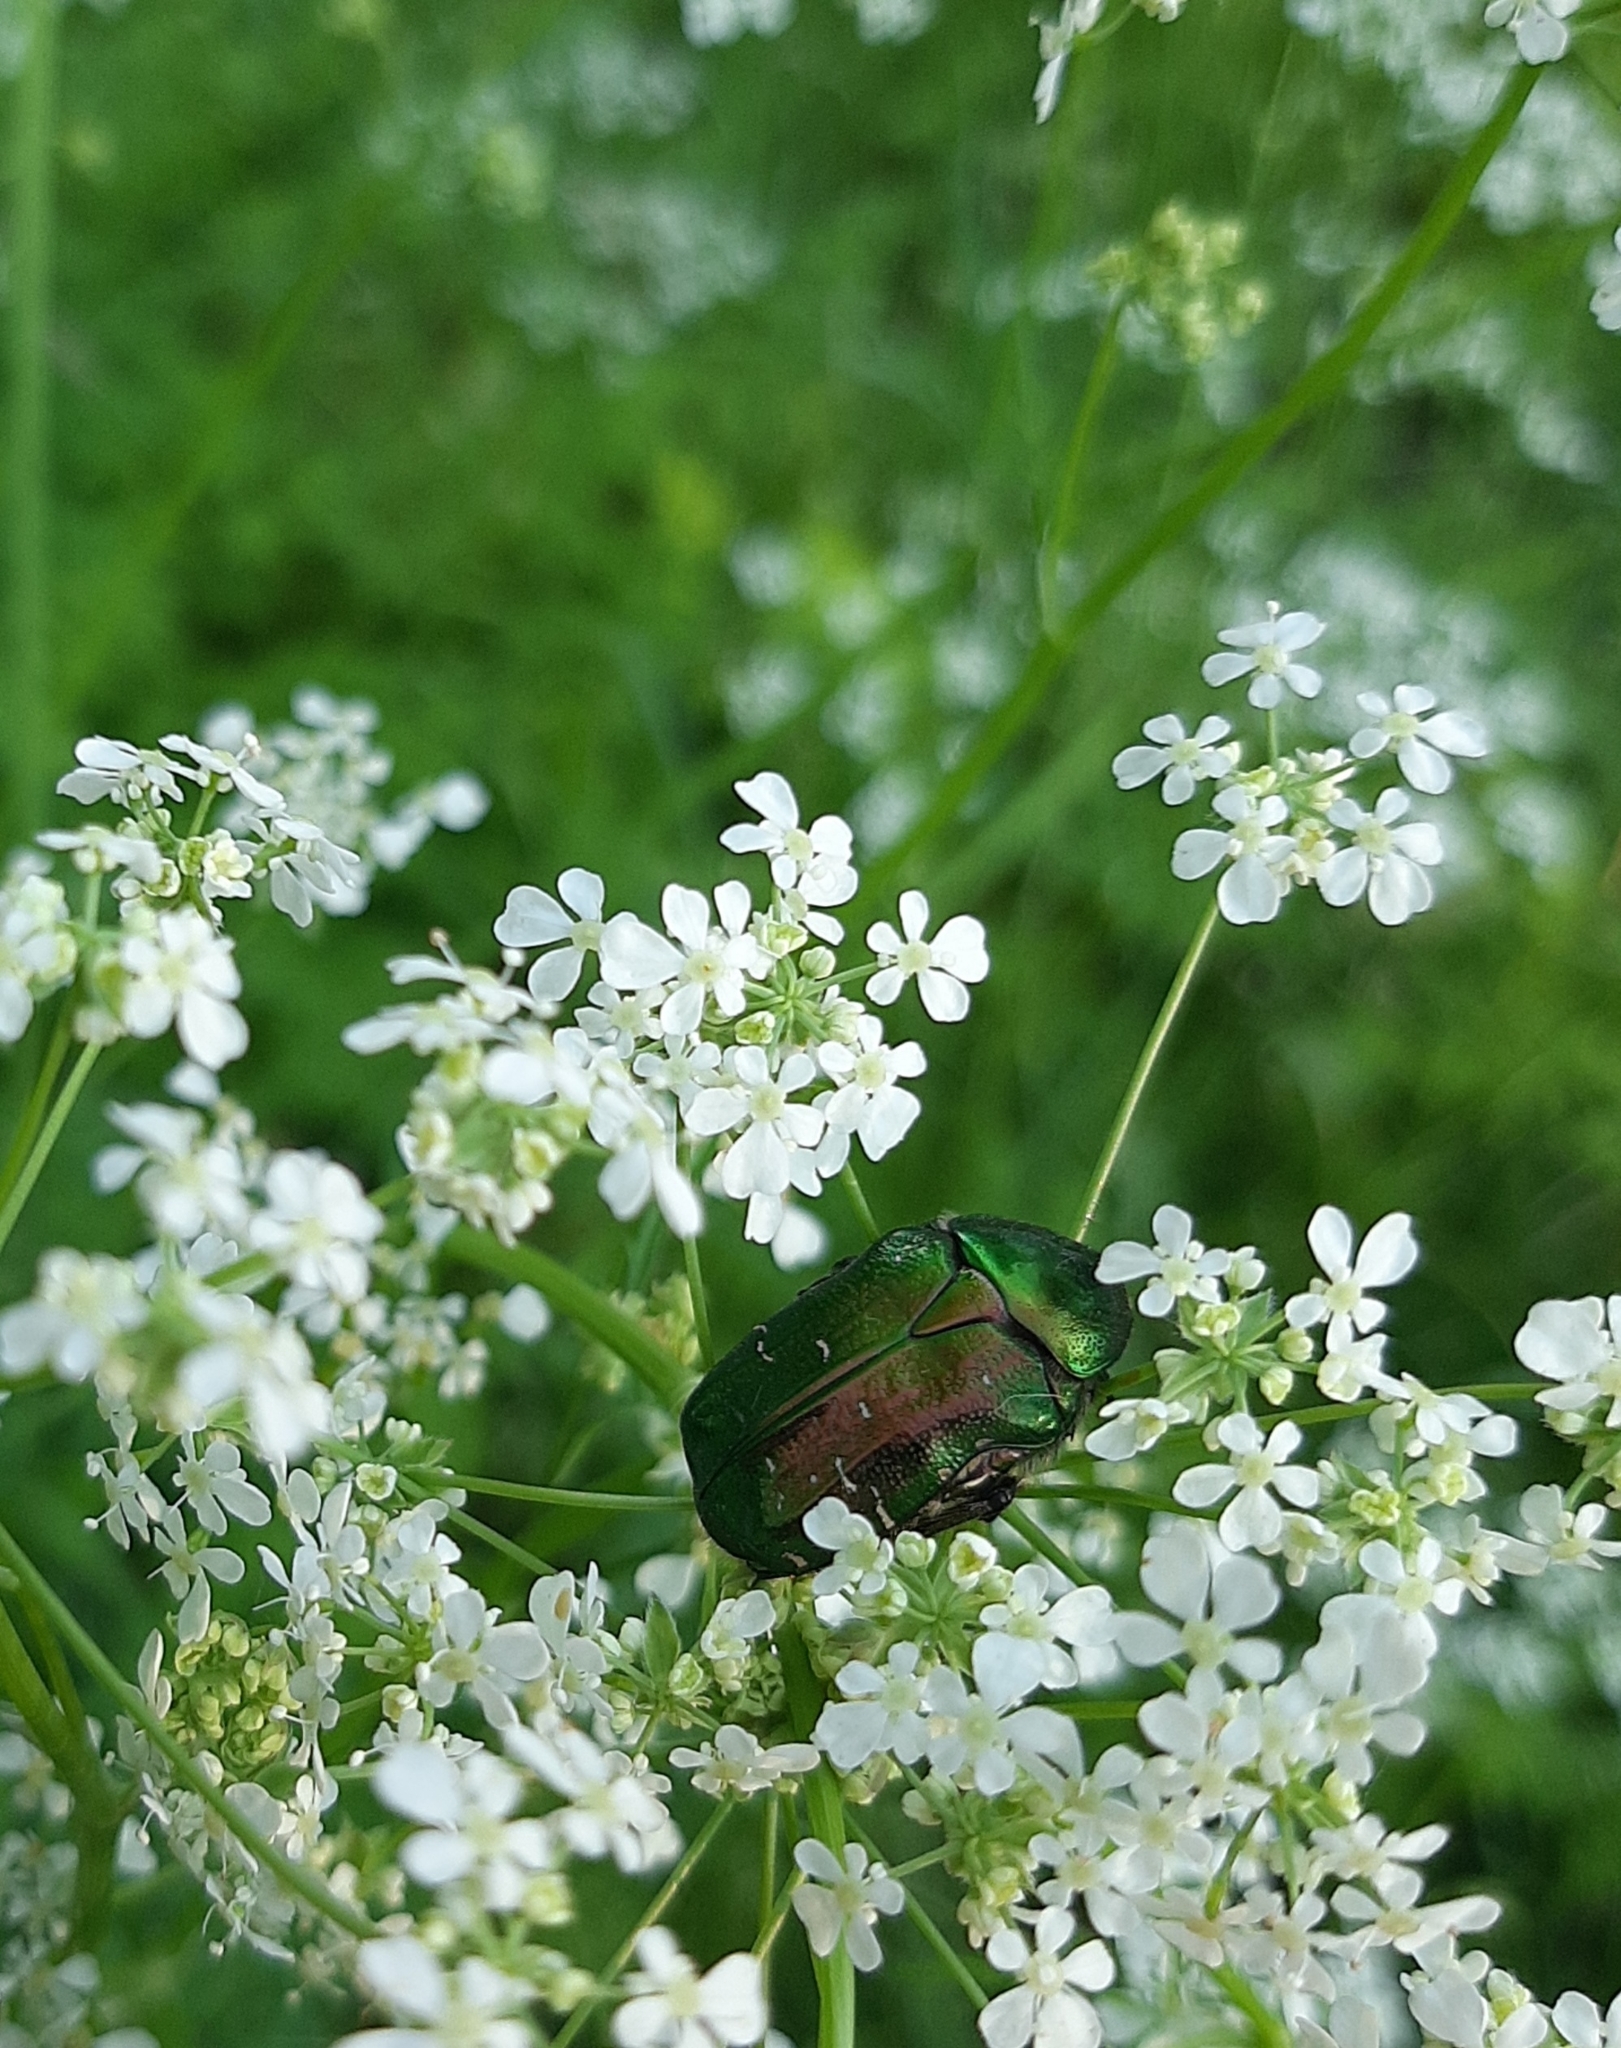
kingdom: Animalia
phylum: Arthropoda
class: Insecta
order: Coleoptera
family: Scarabaeidae
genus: Cetonia
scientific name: Cetonia aurata
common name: Rose chafer
